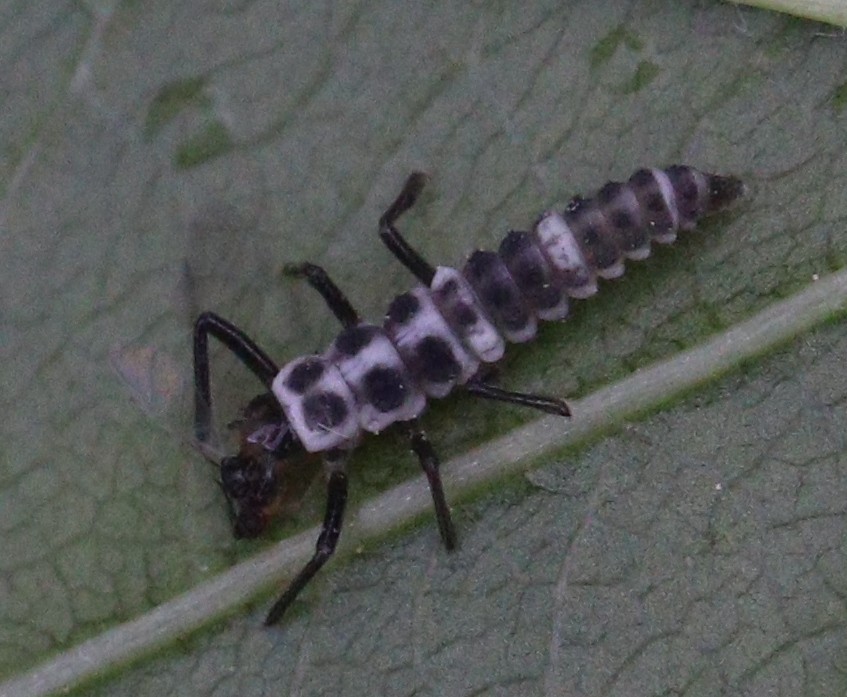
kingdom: Animalia
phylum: Arthropoda
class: Insecta
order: Coleoptera
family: Coccinellidae
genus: Calvia
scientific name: Calvia decemguttata
